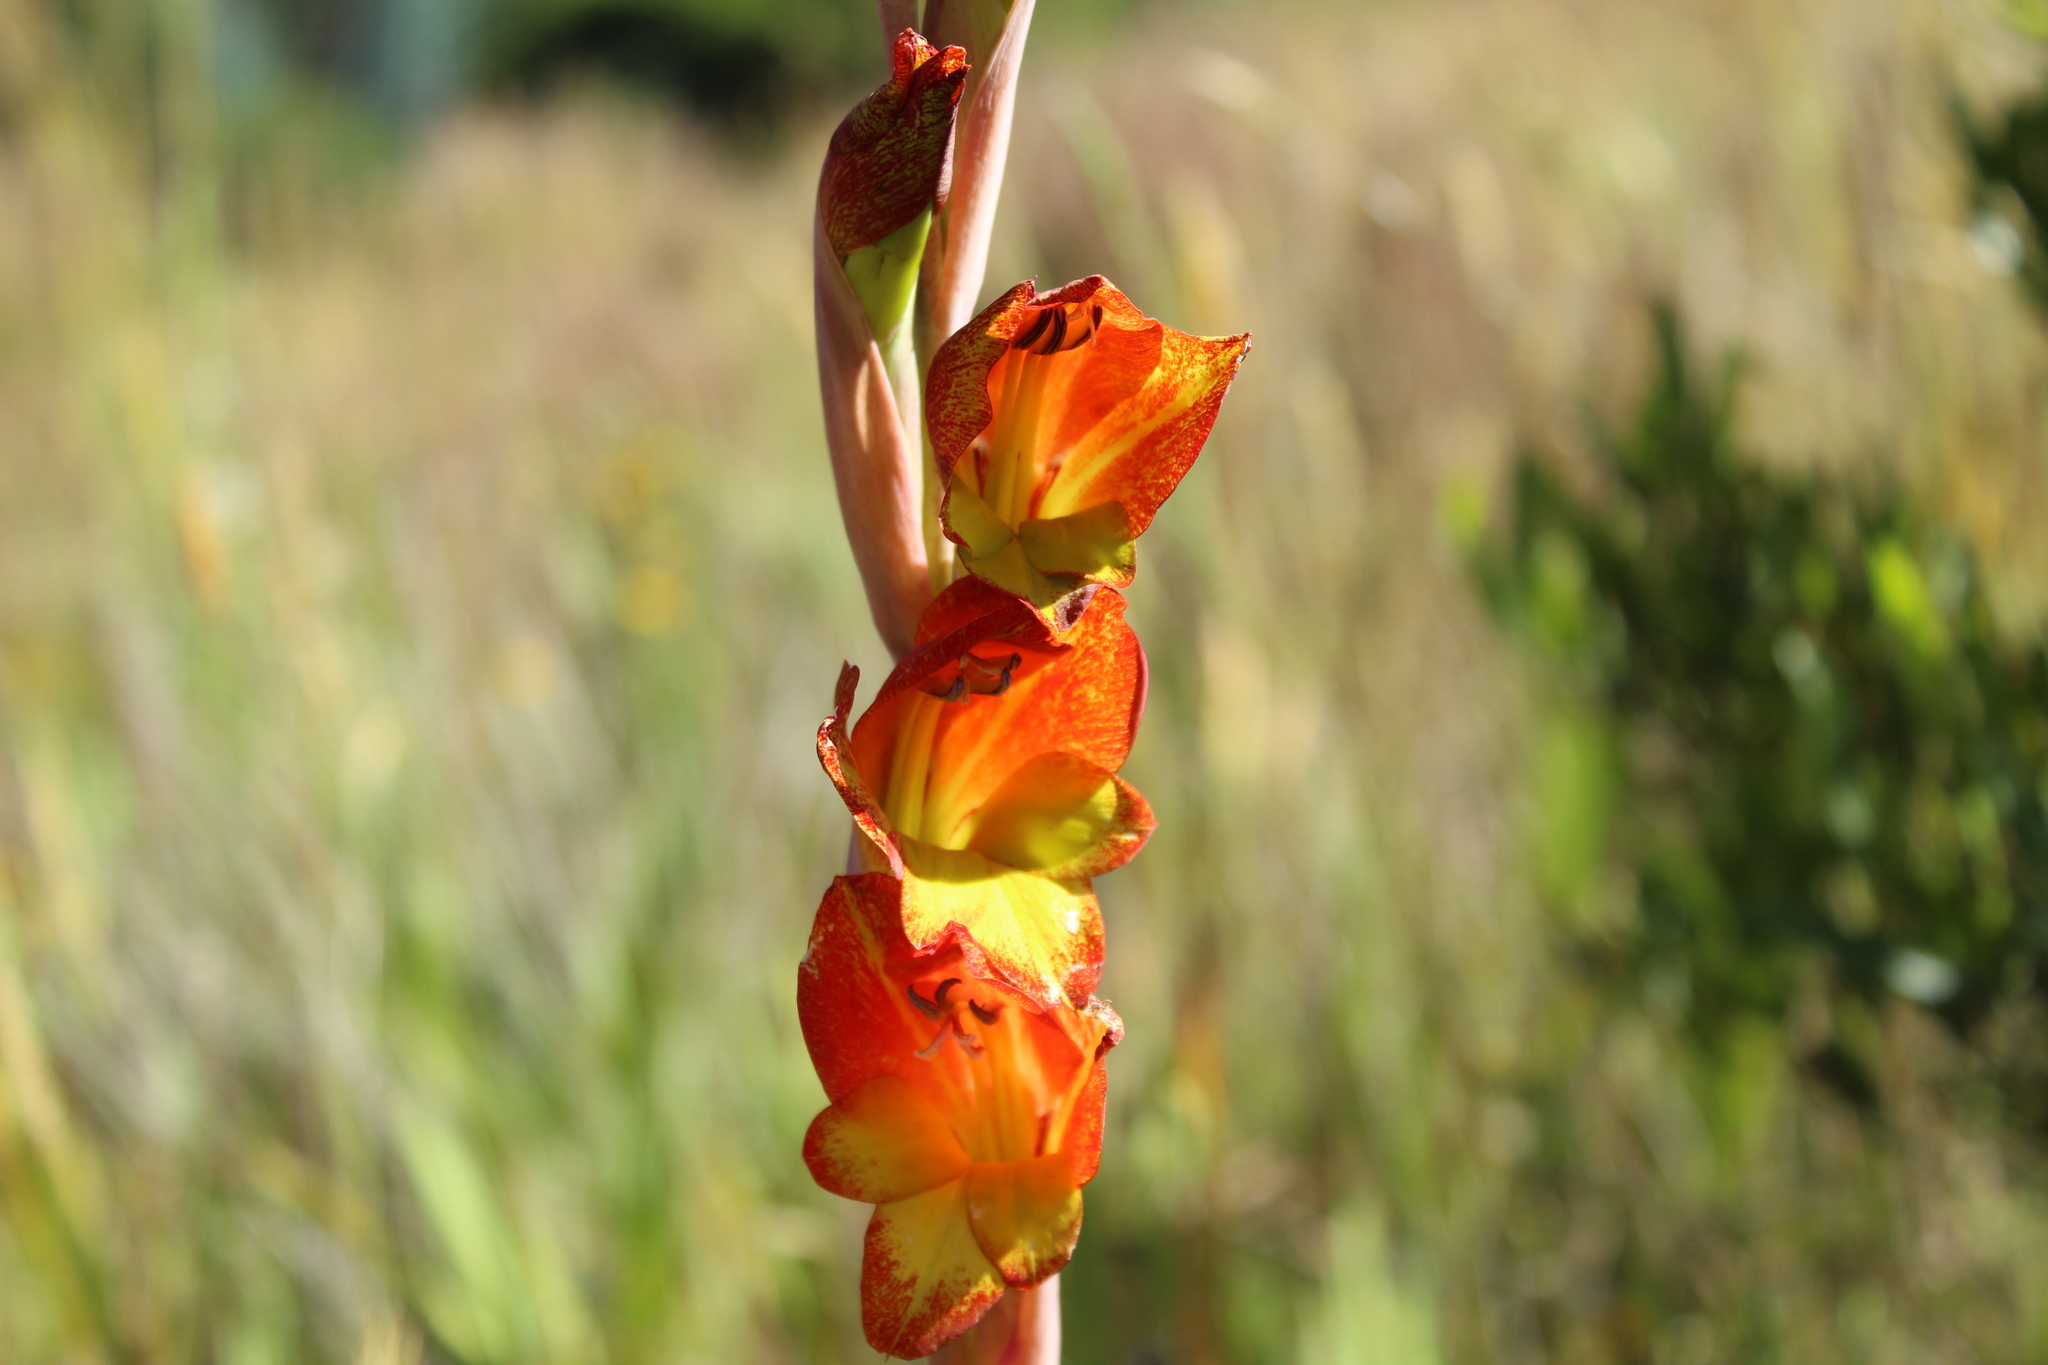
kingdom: Plantae
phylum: Tracheophyta
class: Liliopsida
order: Asparagales
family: Iridaceae
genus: Gladiolus
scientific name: Gladiolus dalenii
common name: Cornflag
